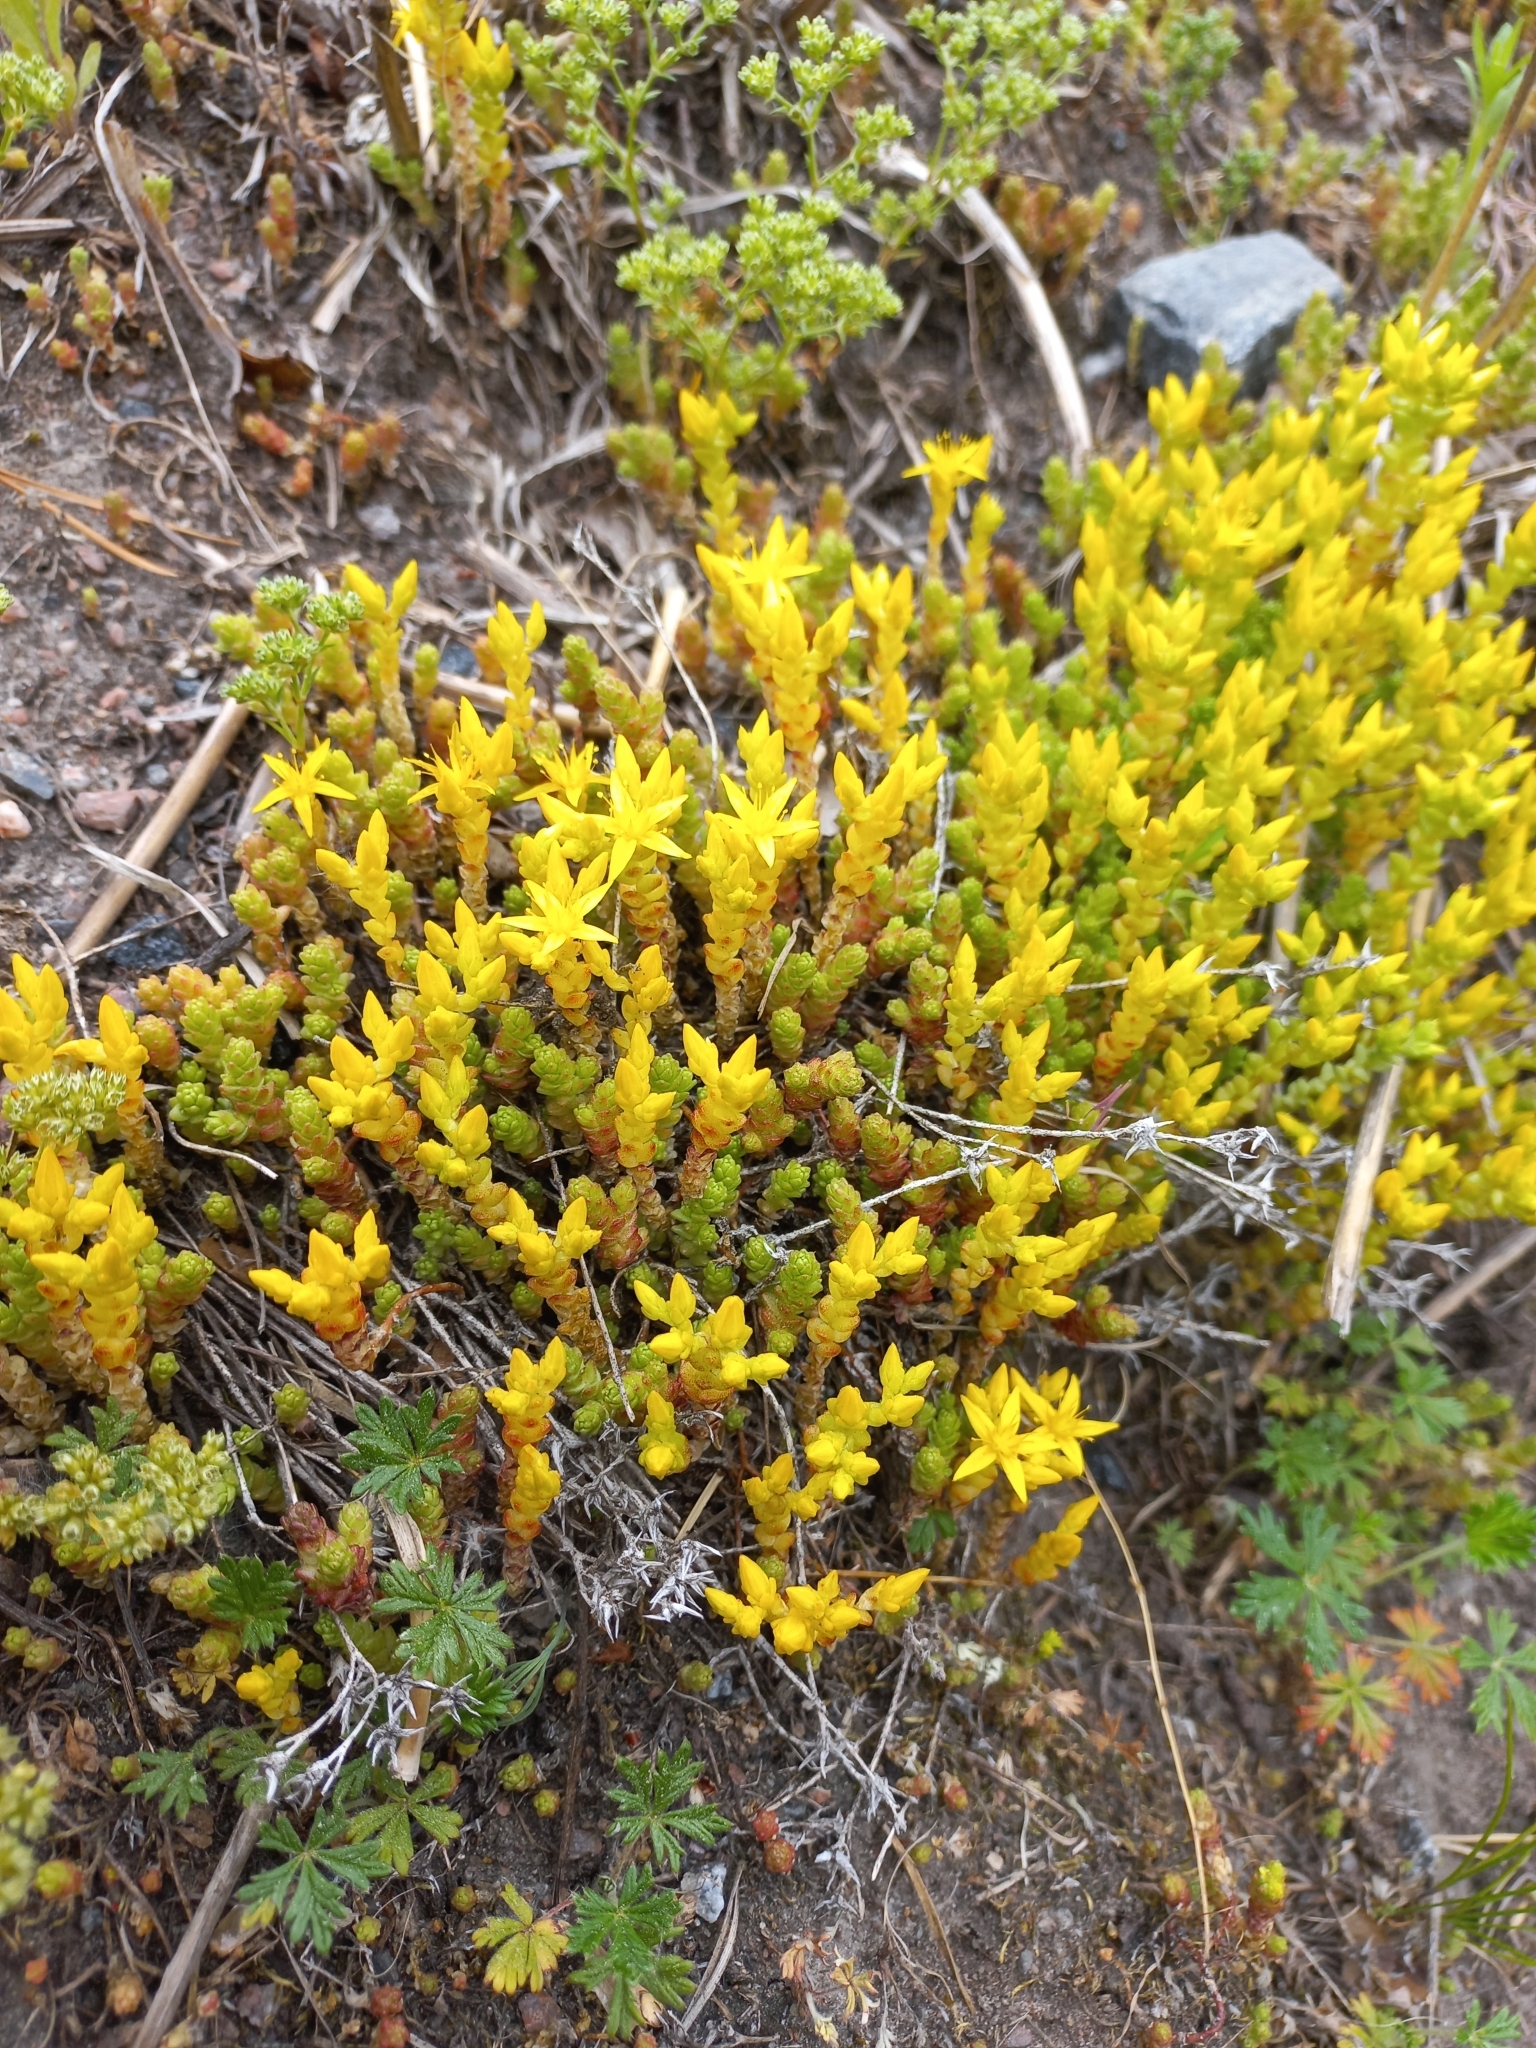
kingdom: Plantae
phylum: Tracheophyta
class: Magnoliopsida
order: Saxifragales
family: Crassulaceae
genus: Sedum
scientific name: Sedum acre
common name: Biting stonecrop
